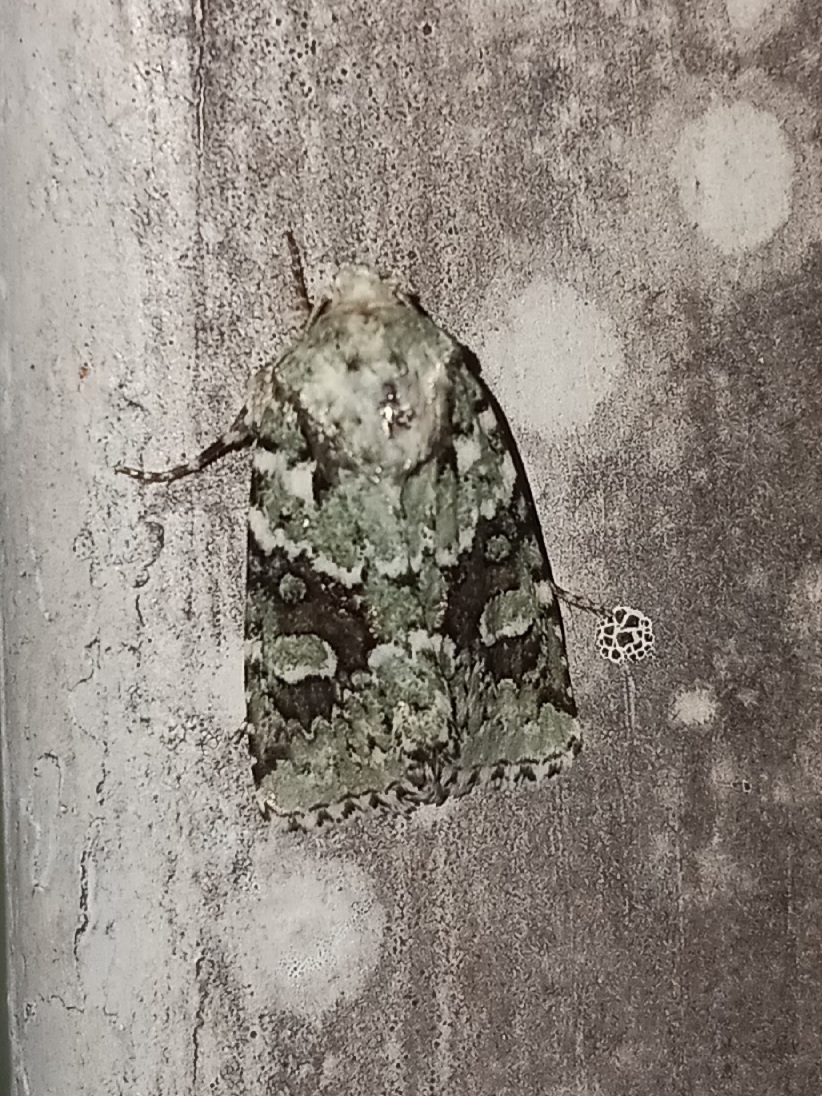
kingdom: Animalia
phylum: Arthropoda
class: Insecta
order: Lepidoptera
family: Noctuidae
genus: Lacinipolia
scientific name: Lacinipolia laudabilis
